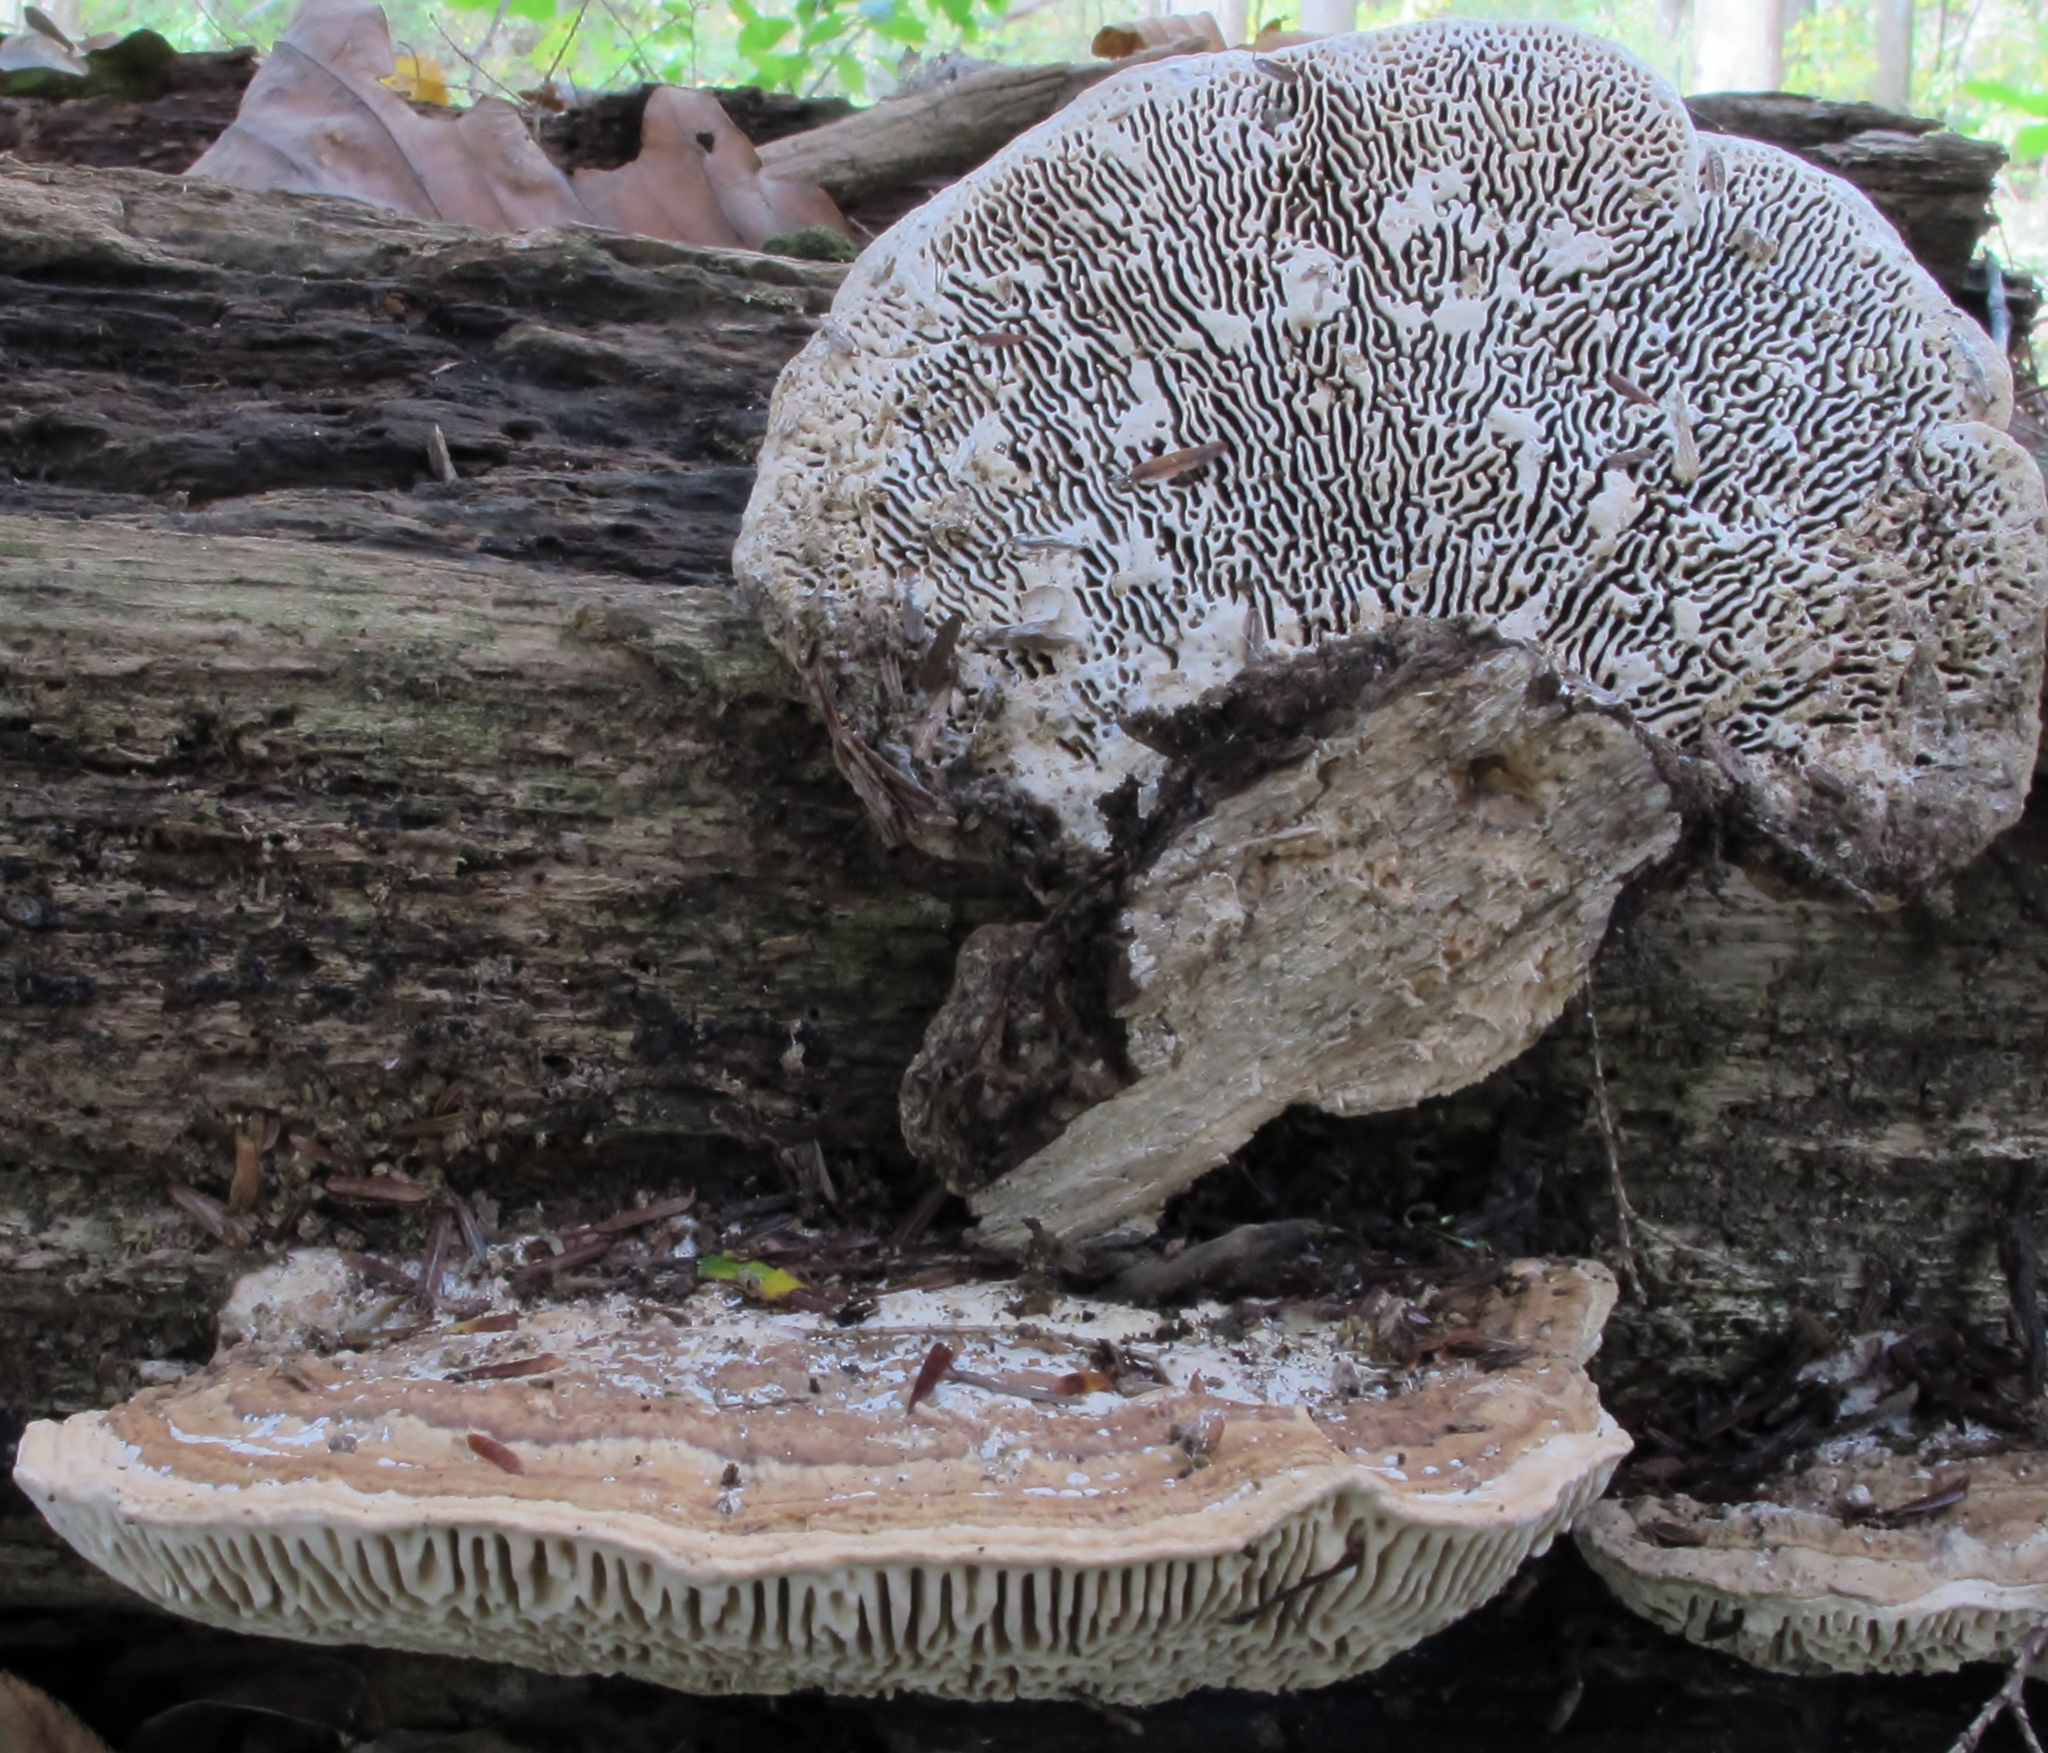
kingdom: Fungi
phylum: Basidiomycota
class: Agaricomycetes
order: Polyporales
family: Fomitopsidaceae
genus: Fomitopsis
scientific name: Fomitopsis
